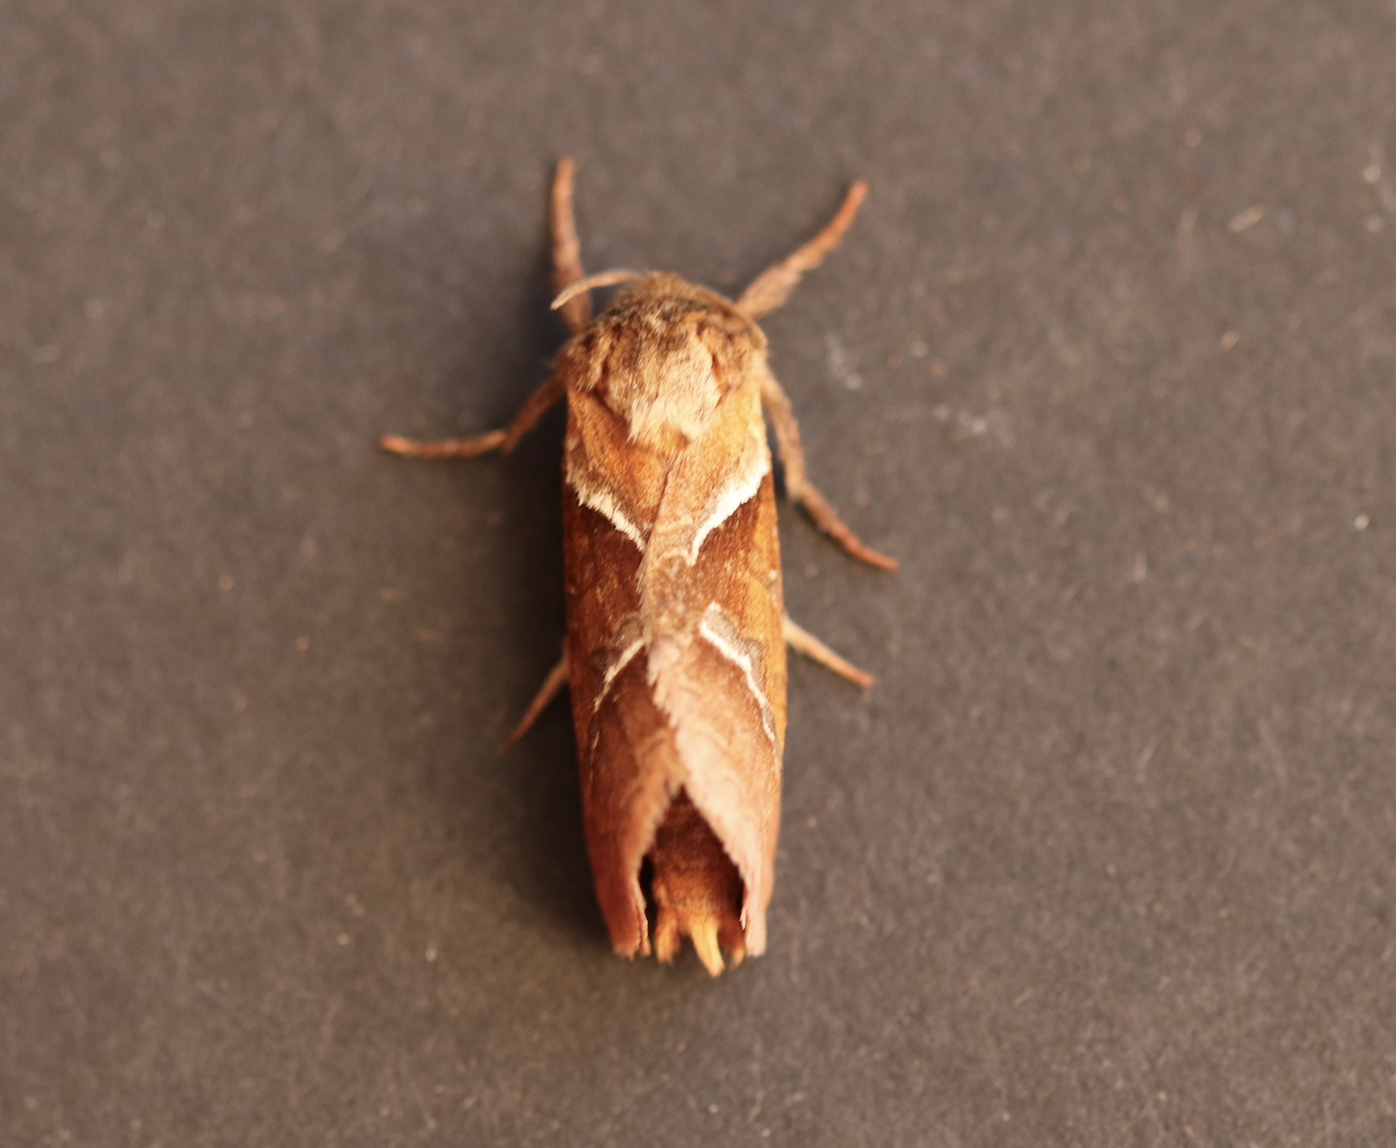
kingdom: Animalia
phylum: Arthropoda
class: Insecta
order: Lepidoptera
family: Hepialidae
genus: Triodia
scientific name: Triodia sylvina
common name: Orange swift
